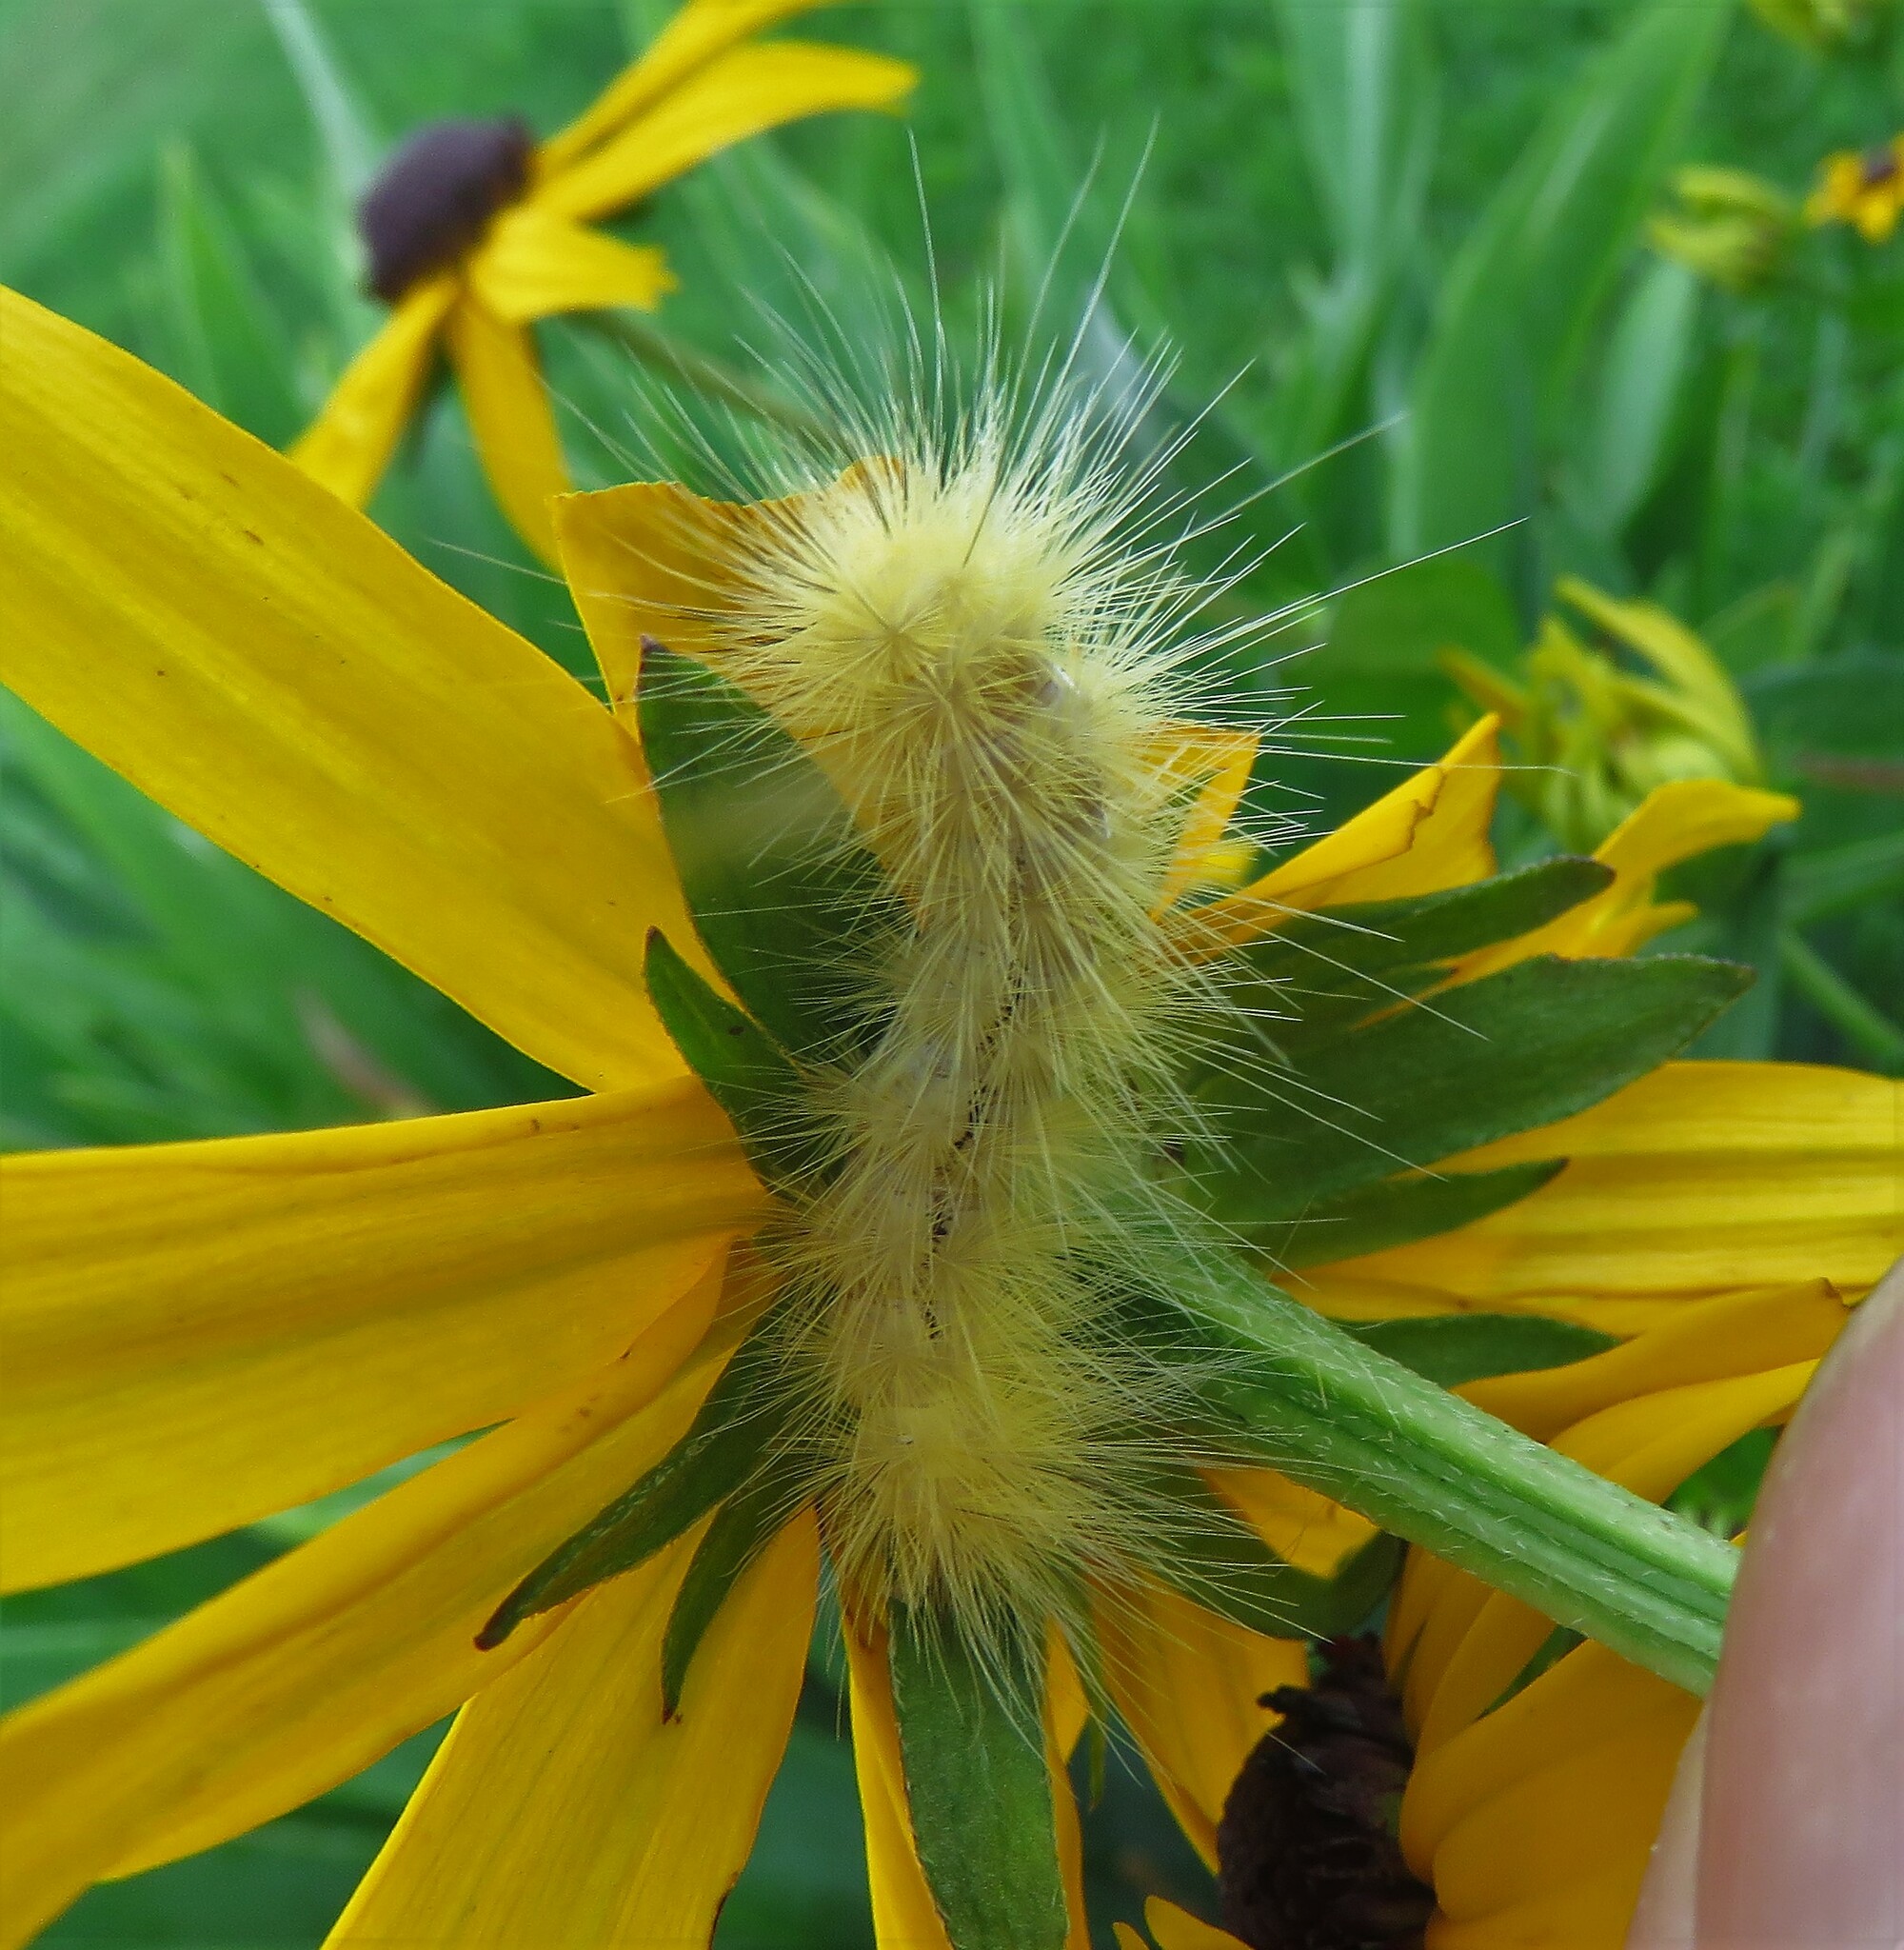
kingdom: Animalia
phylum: Arthropoda
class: Insecta
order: Lepidoptera
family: Erebidae
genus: Spilosoma
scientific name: Spilosoma virginica
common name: Virginia tiger moth
